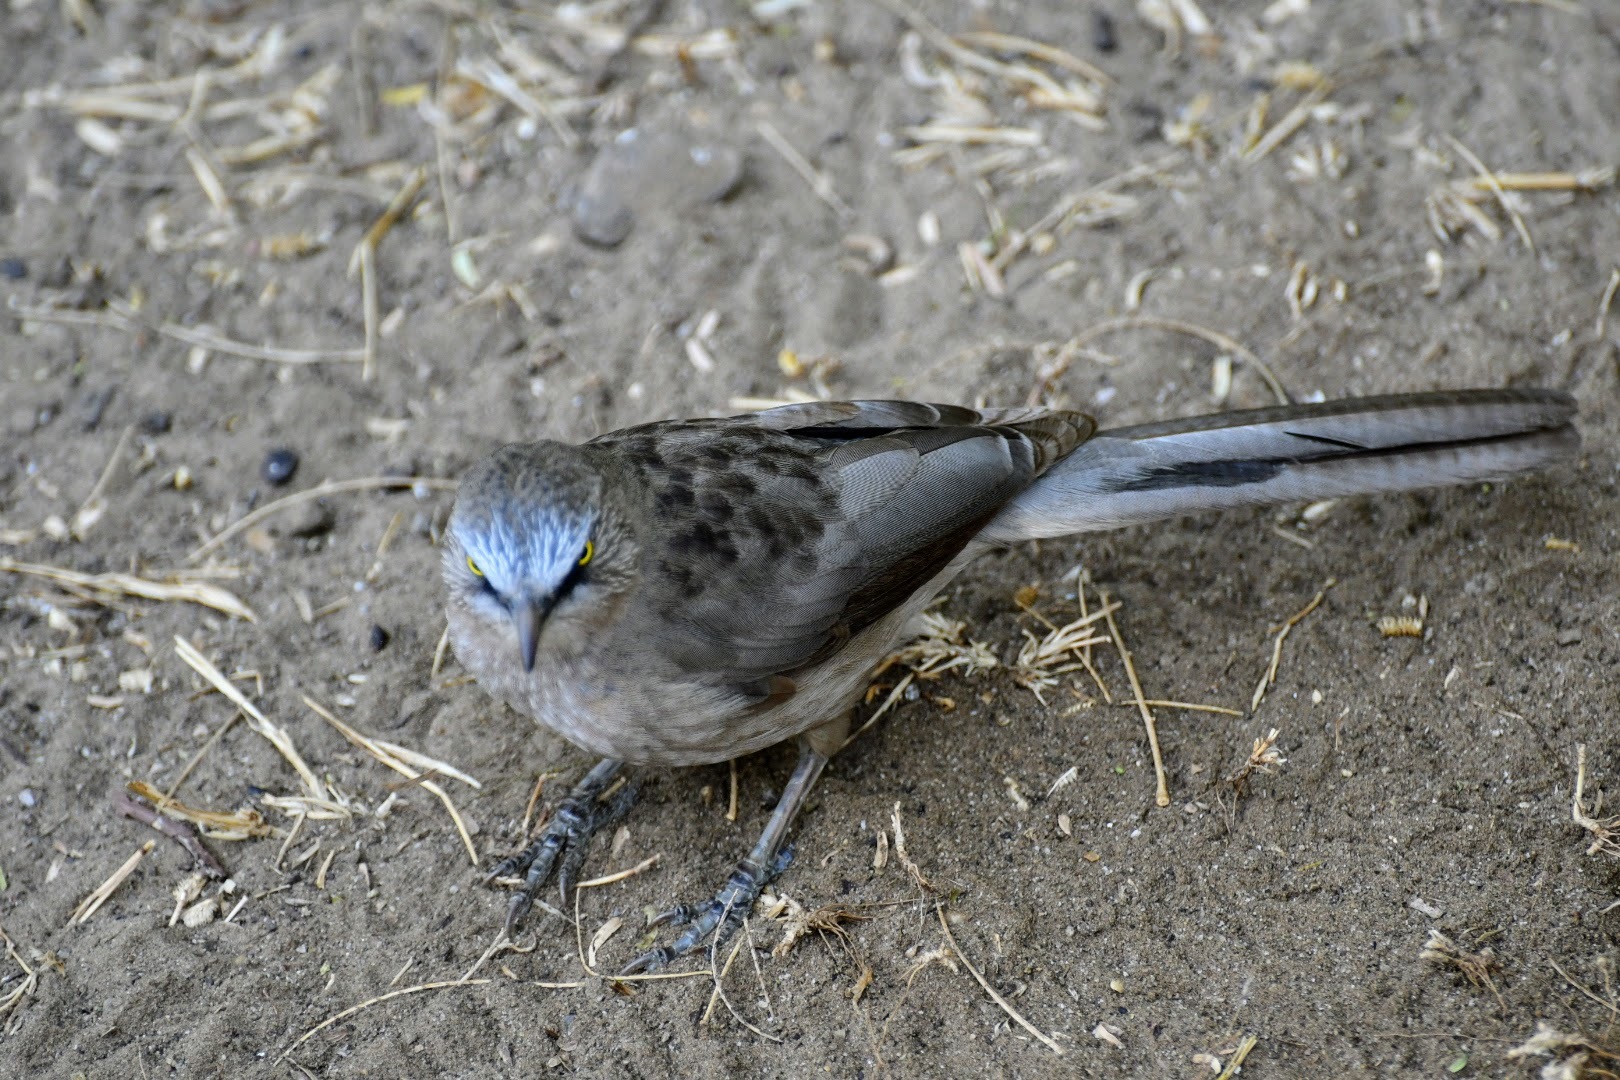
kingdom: Animalia
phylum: Chordata
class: Aves
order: Passeriformes
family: Leiothrichidae
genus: Turdoides
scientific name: Turdoides malcolmi
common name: Large grey babbler
